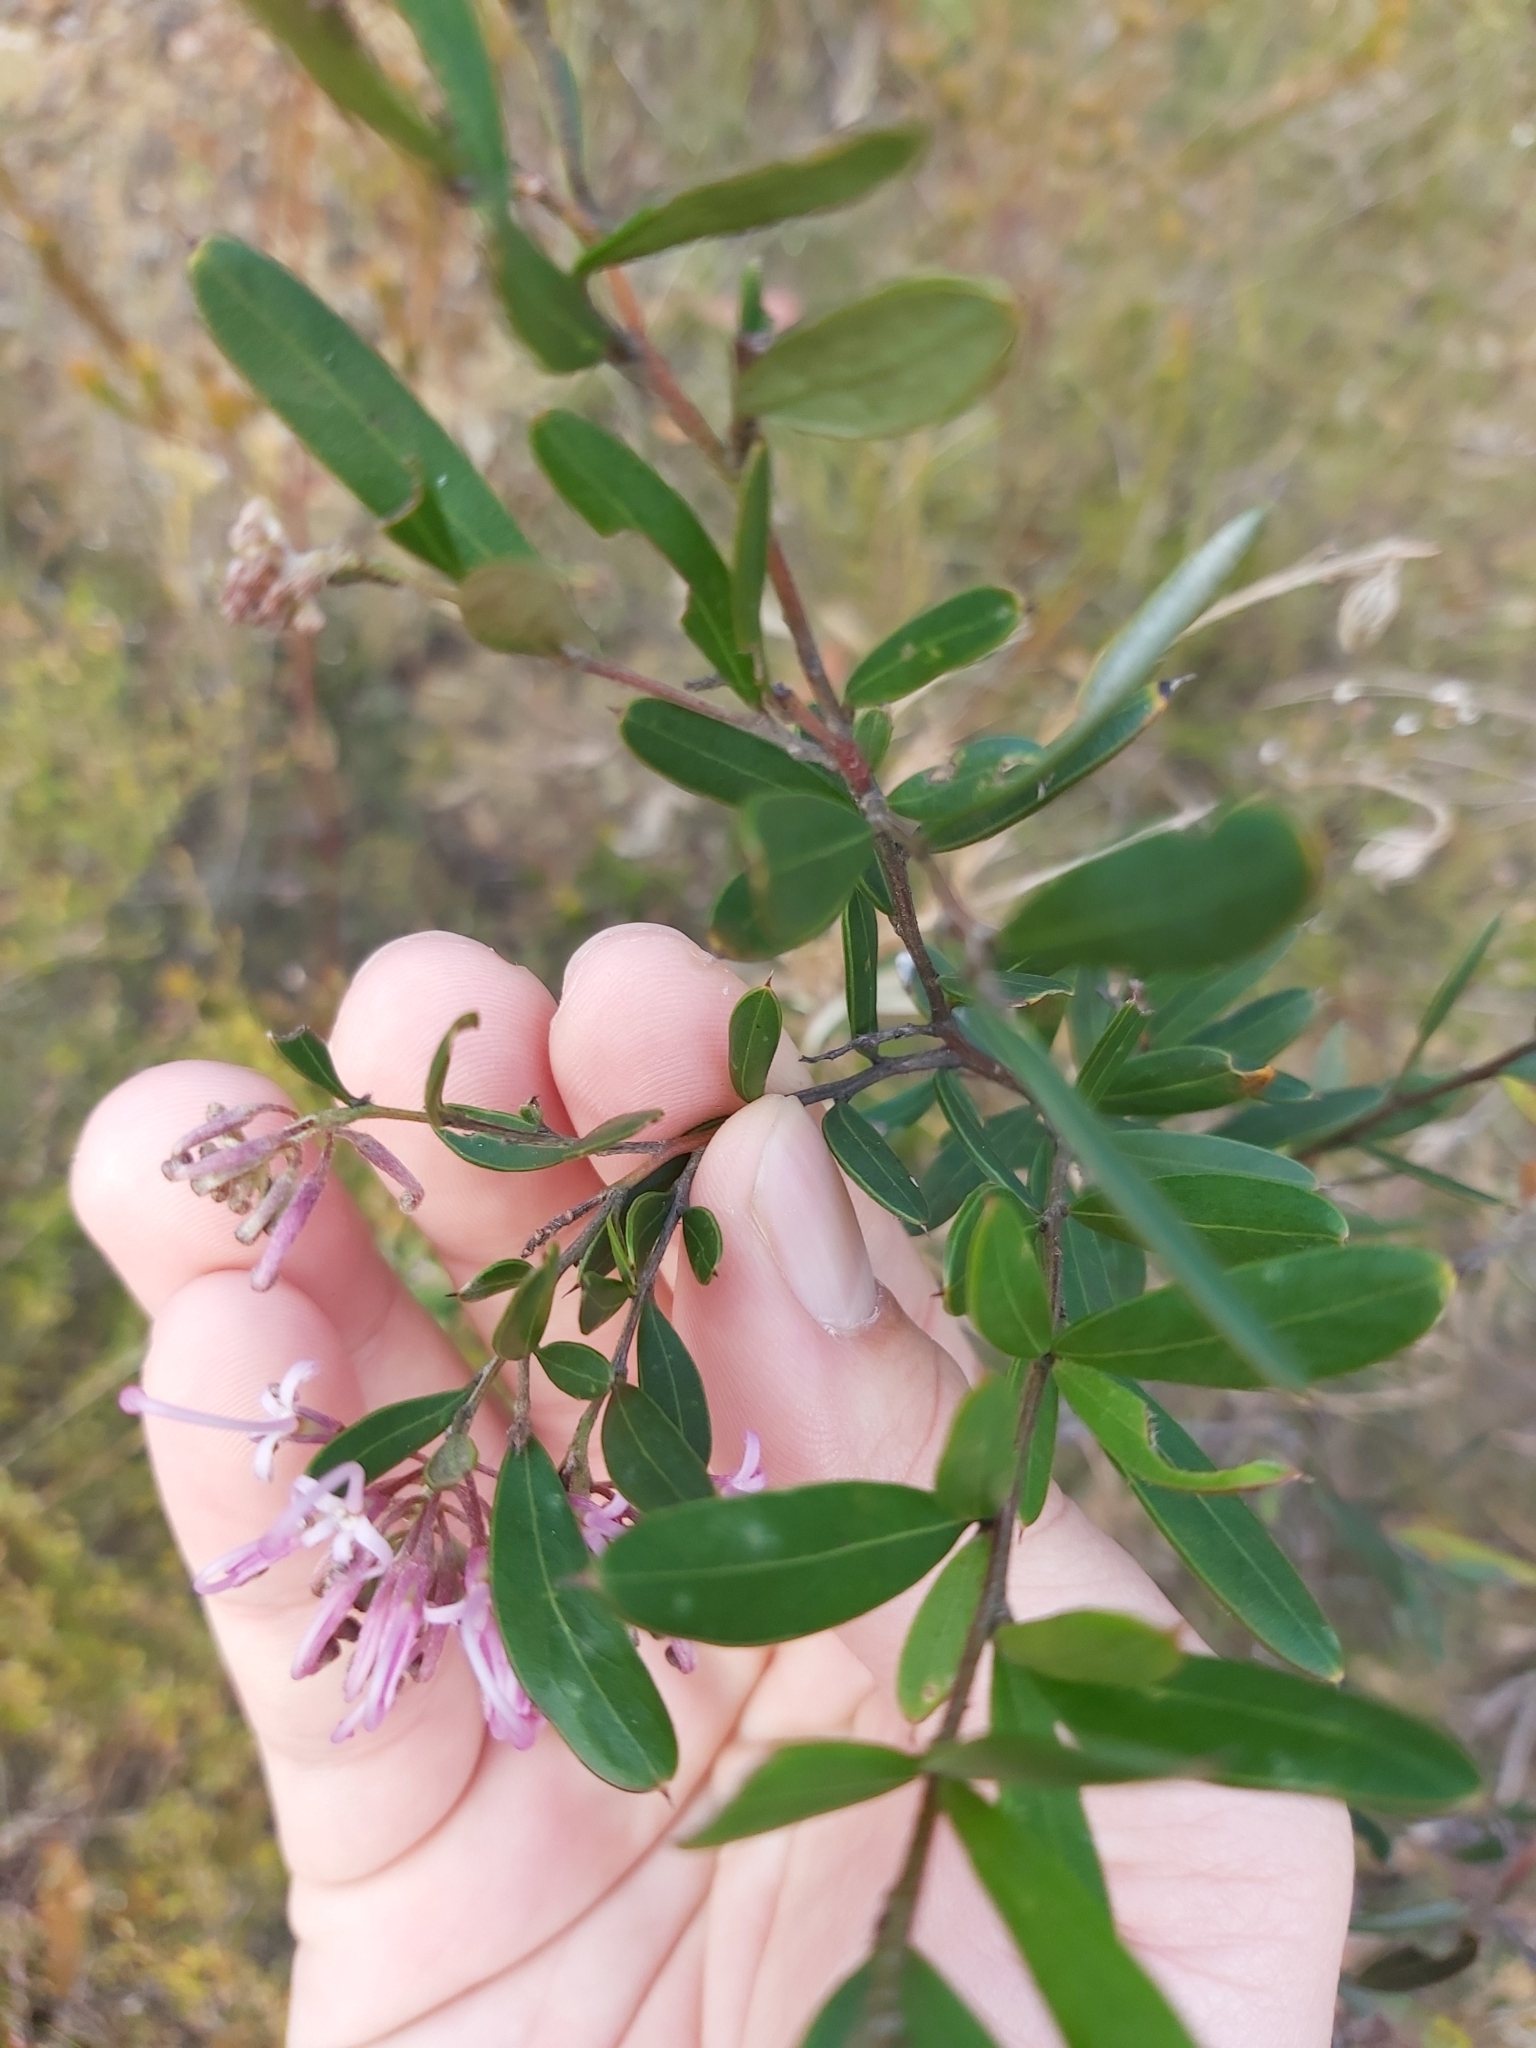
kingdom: Plantae
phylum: Tracheophyta
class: Magnoliopsida
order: Proteales
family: Proteaceae
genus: Grevillea
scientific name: Grevillea sericea
